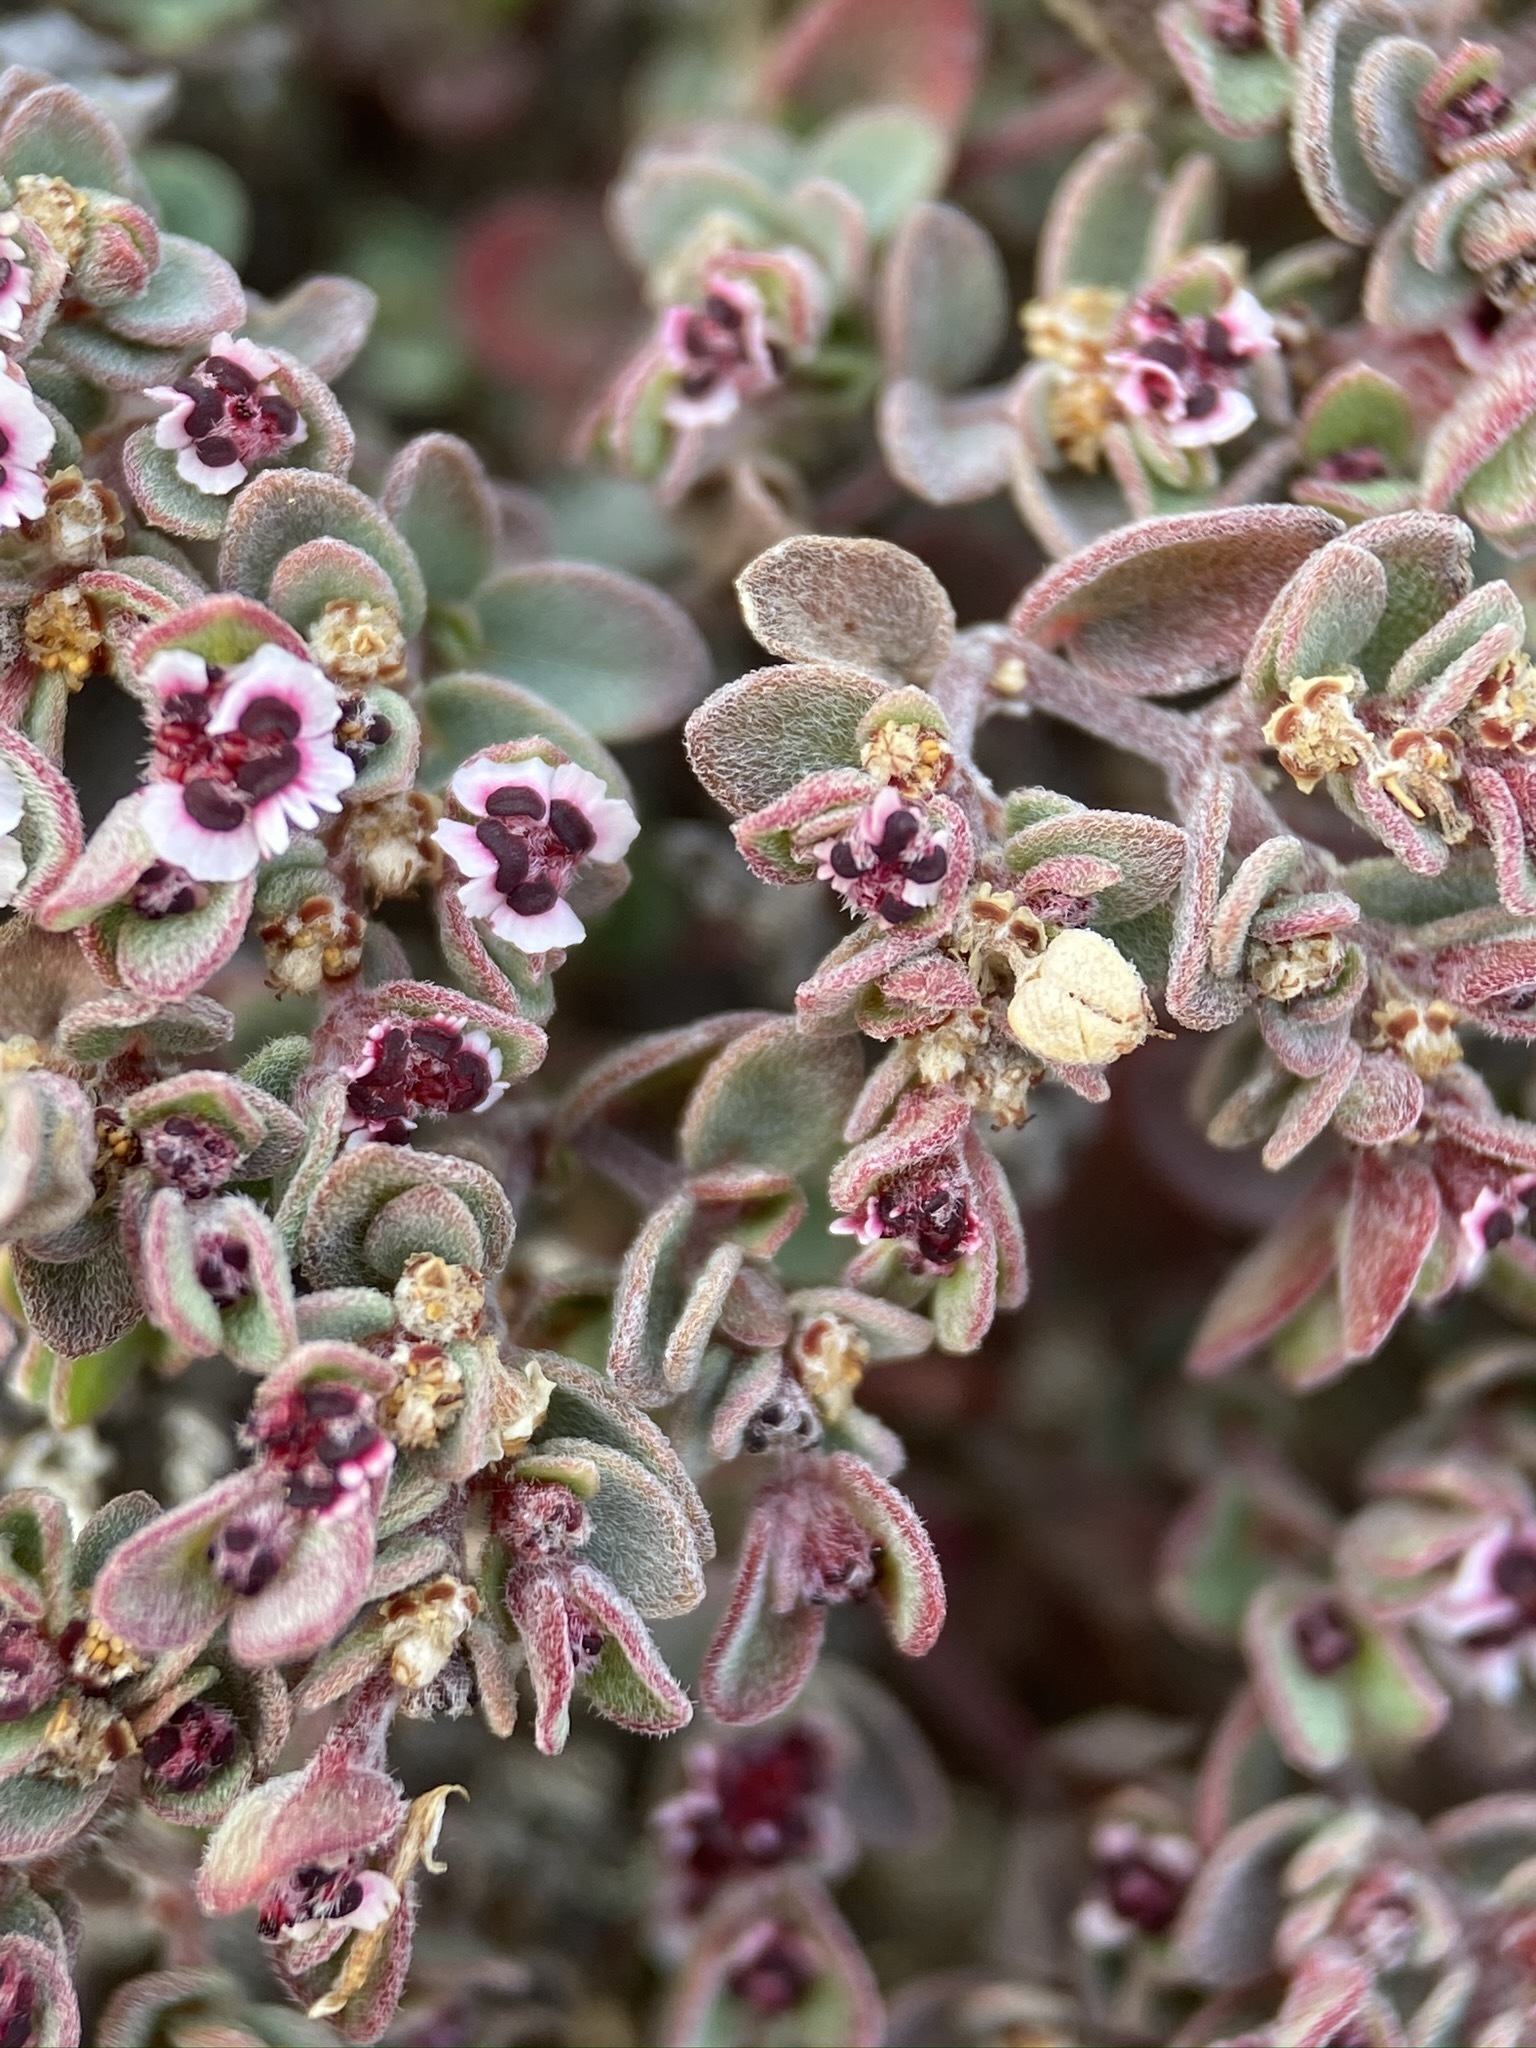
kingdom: Plantae
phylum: Tracheophyta
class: Magnoliopsida
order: Malpighiales
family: Euphorbiaceae
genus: Euphorbia
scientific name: Euphorbia melanadenia
